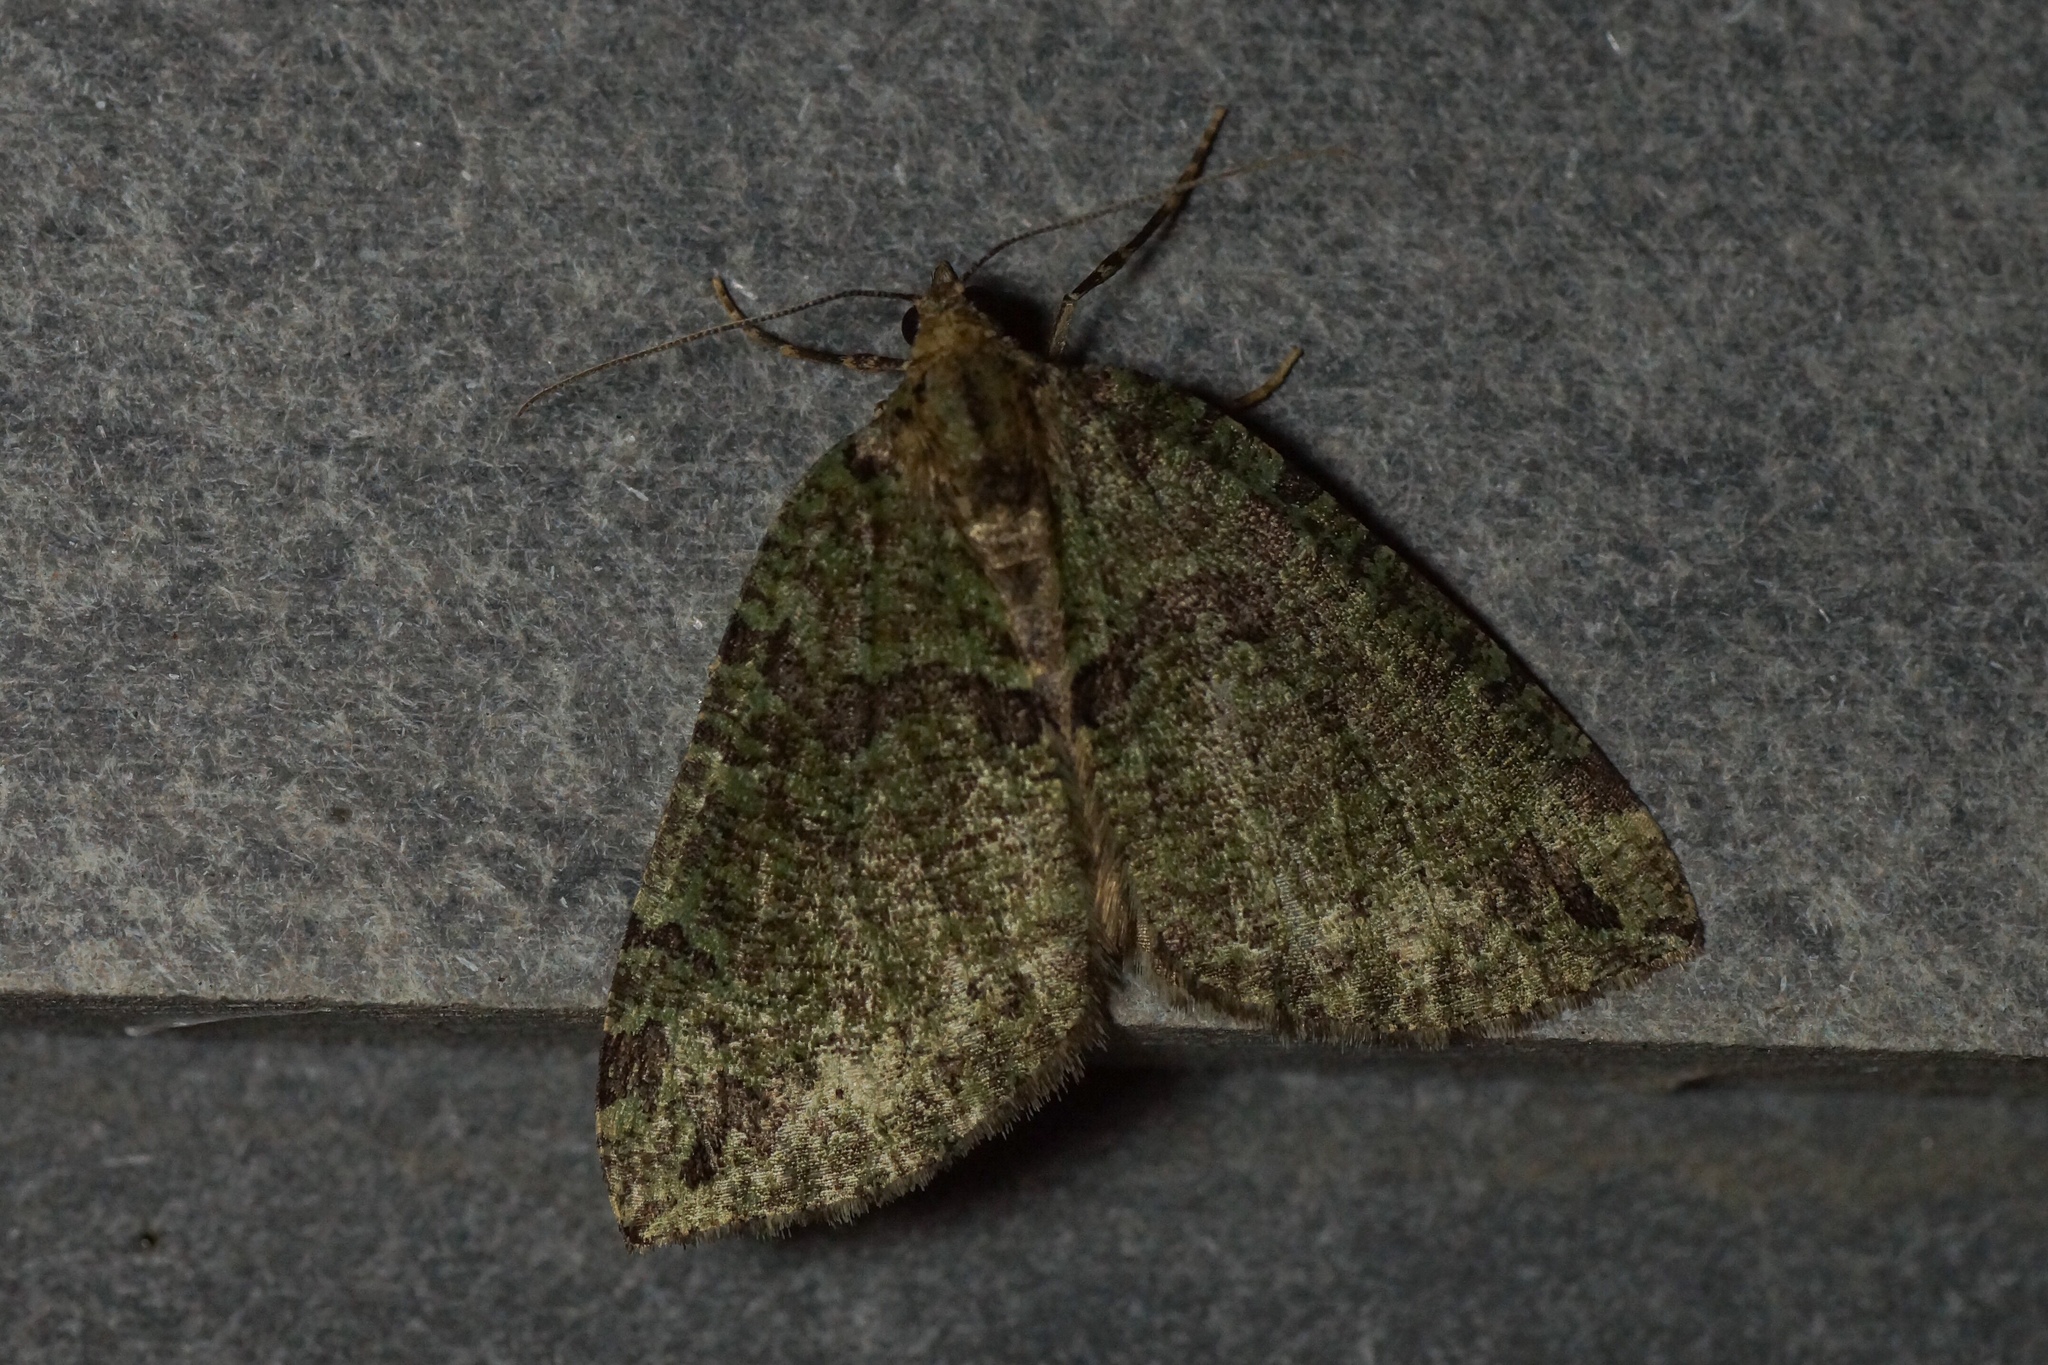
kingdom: Animalia
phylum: Arthropoda
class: Insecta
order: Lepidoptera
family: Geometridae
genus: Hydriomena
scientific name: Hydriomena furcata
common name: July highflyer
